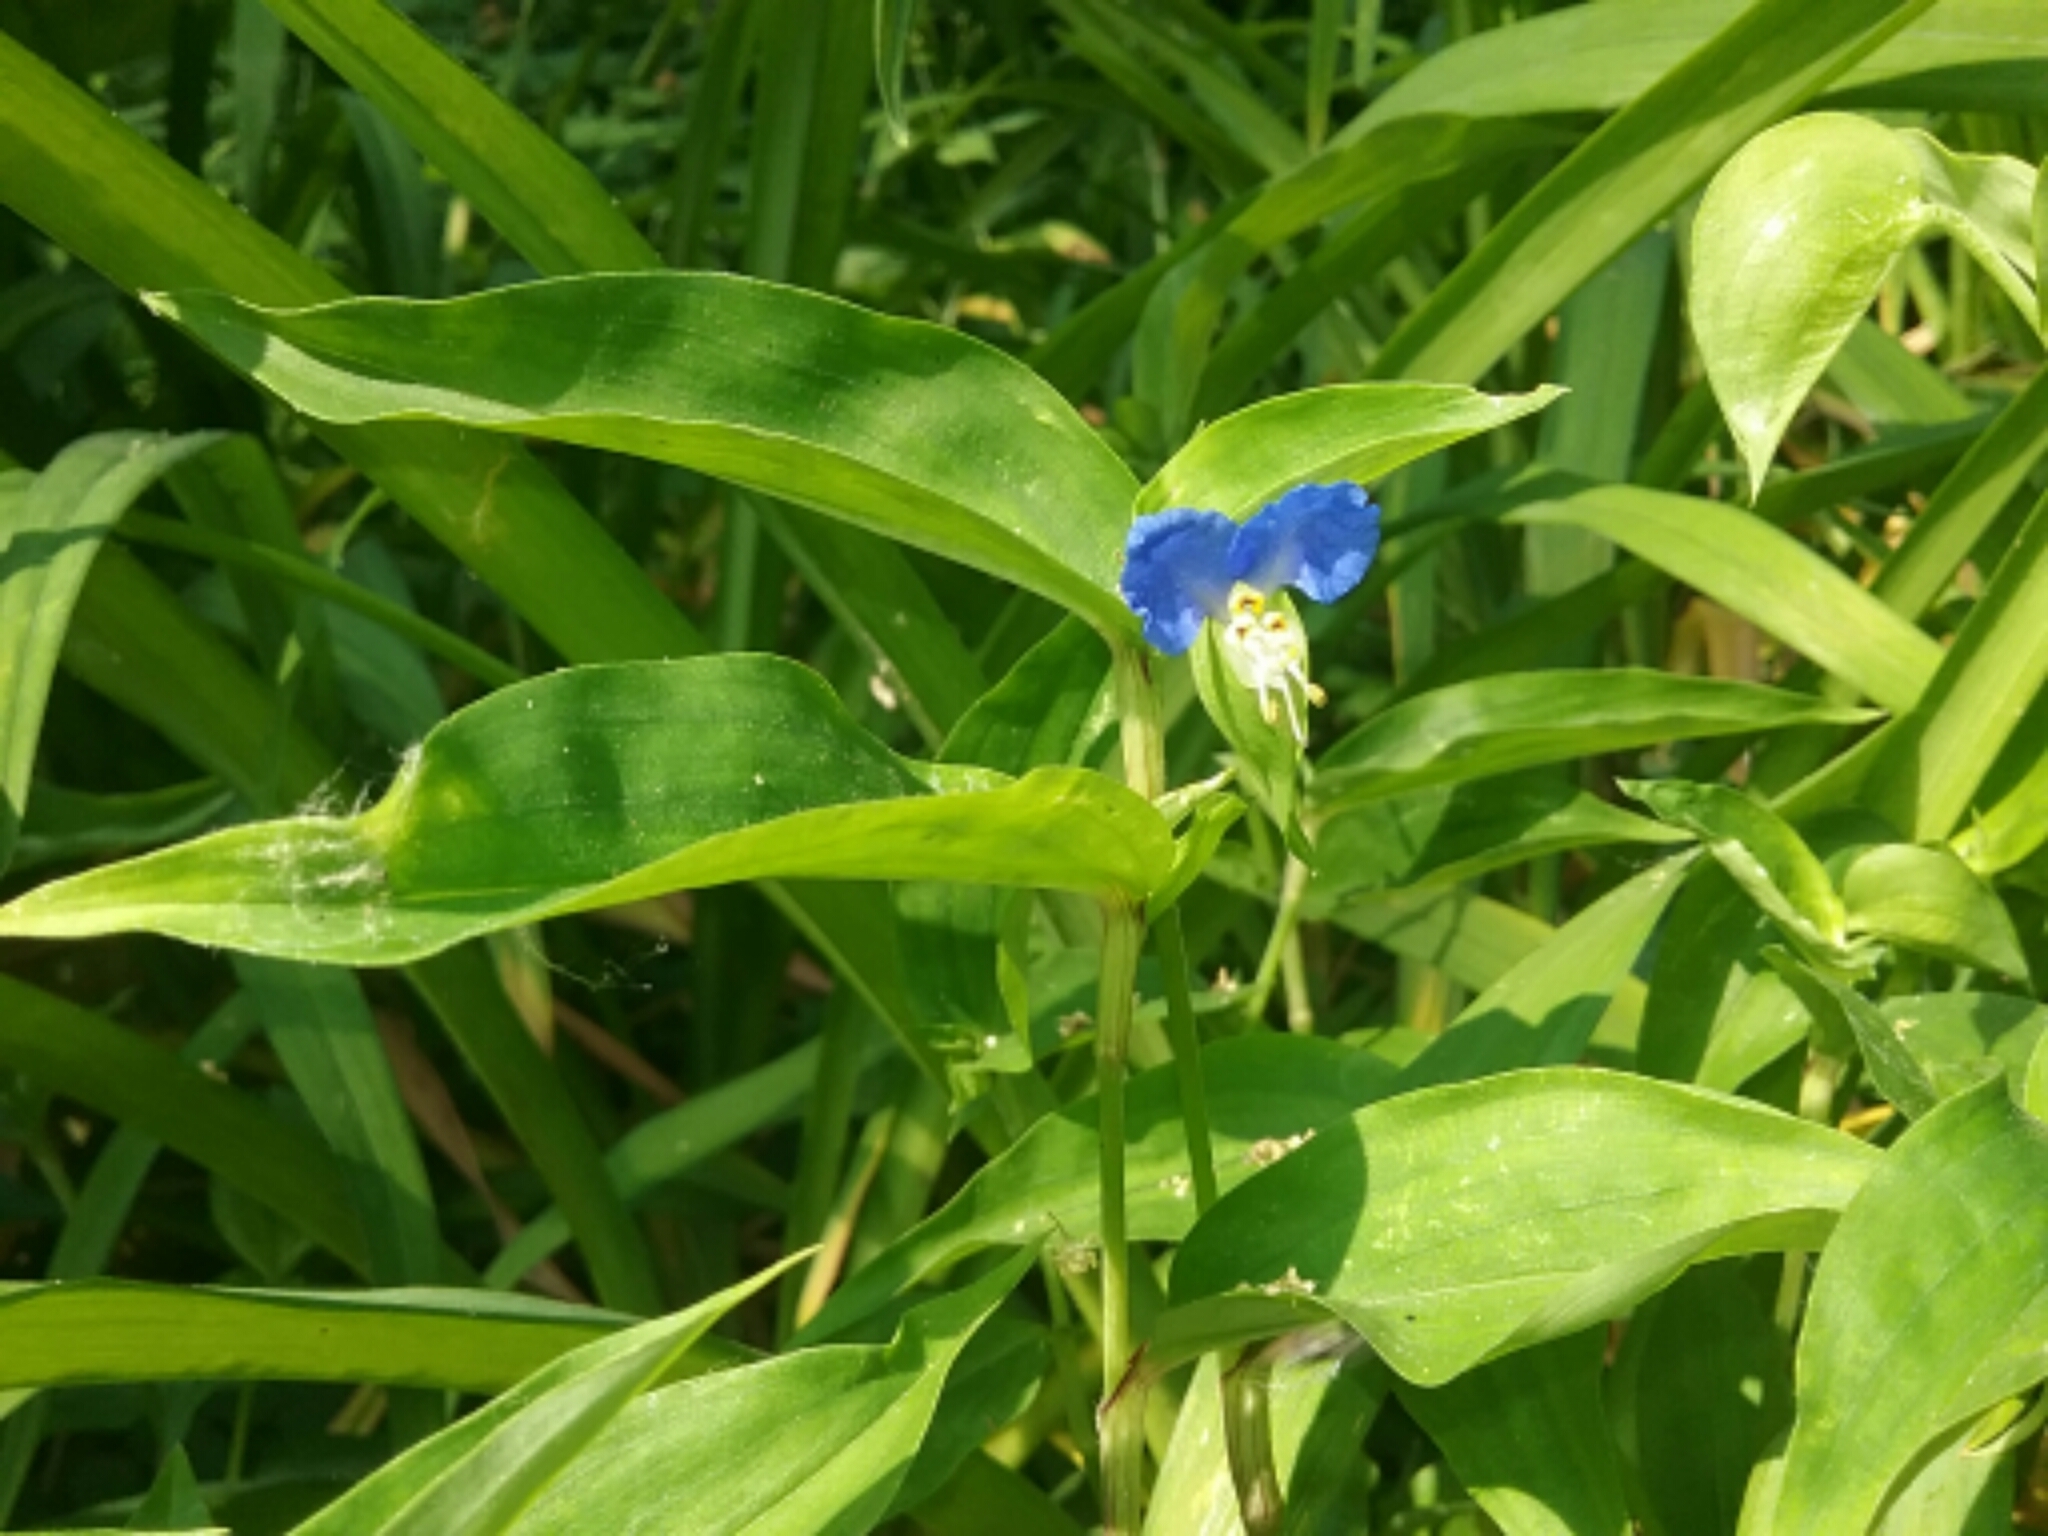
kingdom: Plantae
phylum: Tracheophyta
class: Liliopsida
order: Commelinales
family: Commelinaceae
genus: Commelina
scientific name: Commelina communis
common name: Asiatic dayflower
